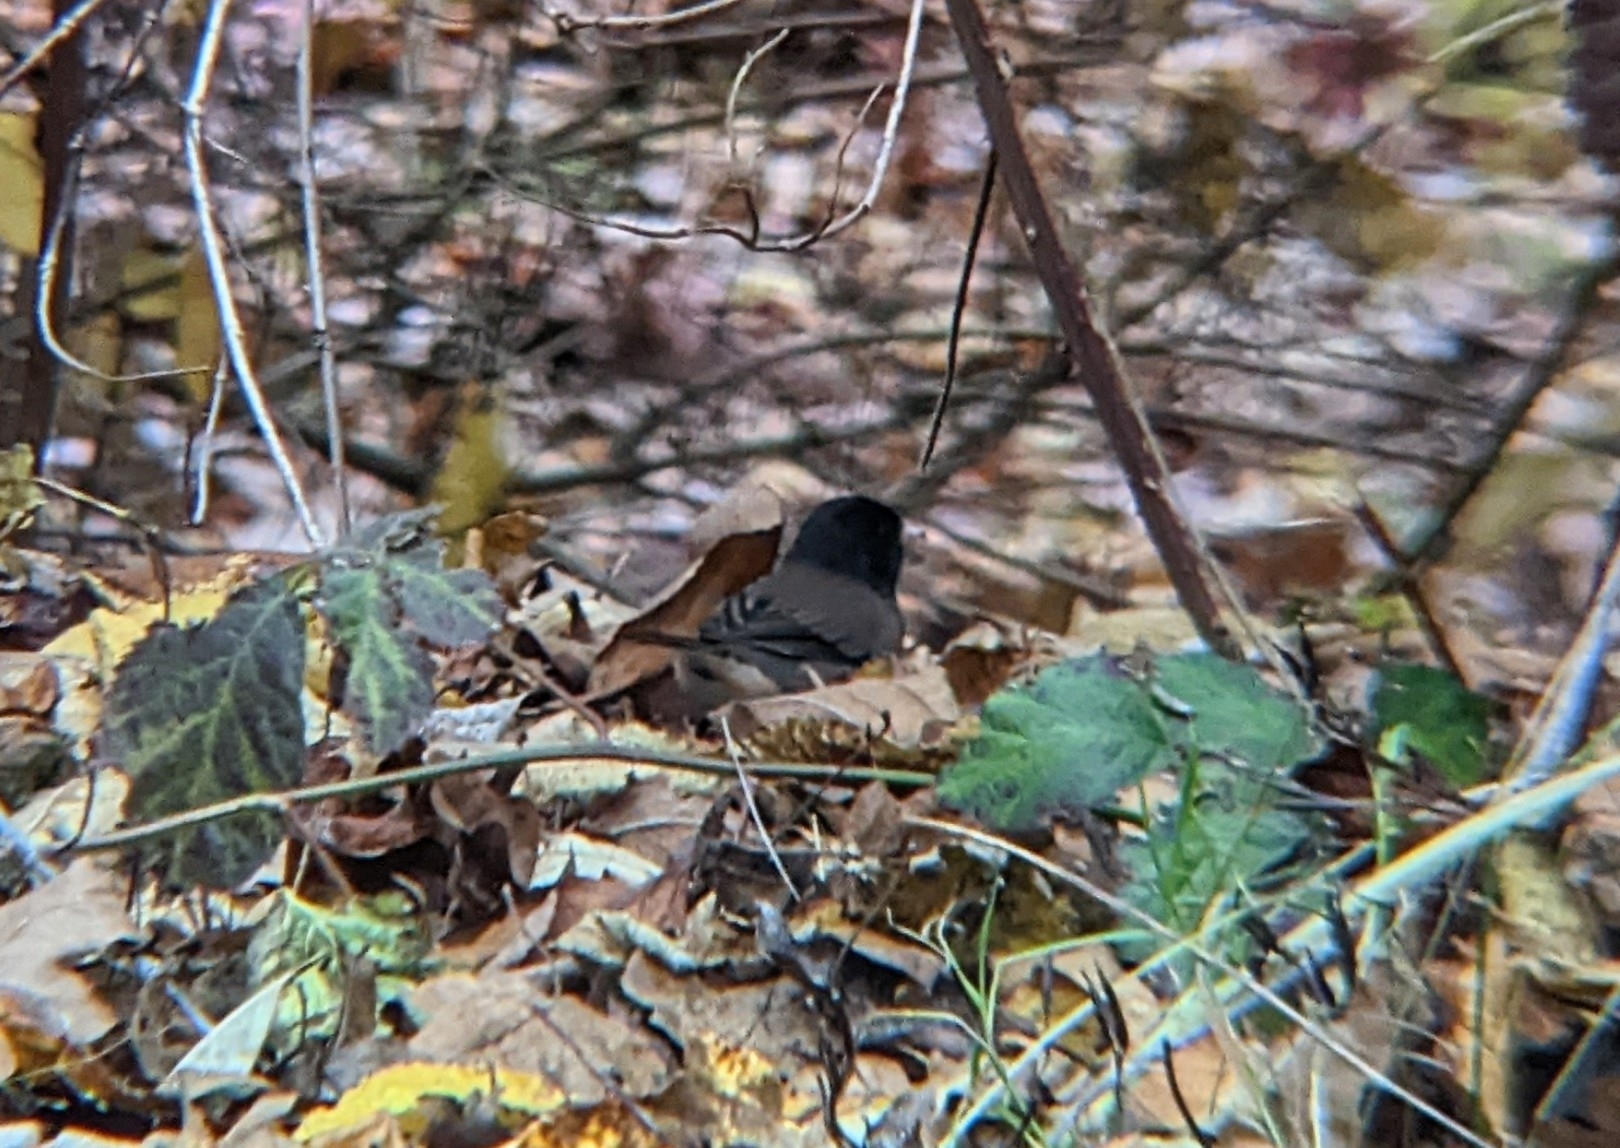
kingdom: Animalia
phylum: Chordata
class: Aves
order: Passeriformes
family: Passerellidae
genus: Junco
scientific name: Junco hyemalis
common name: Dark-eyed junco
